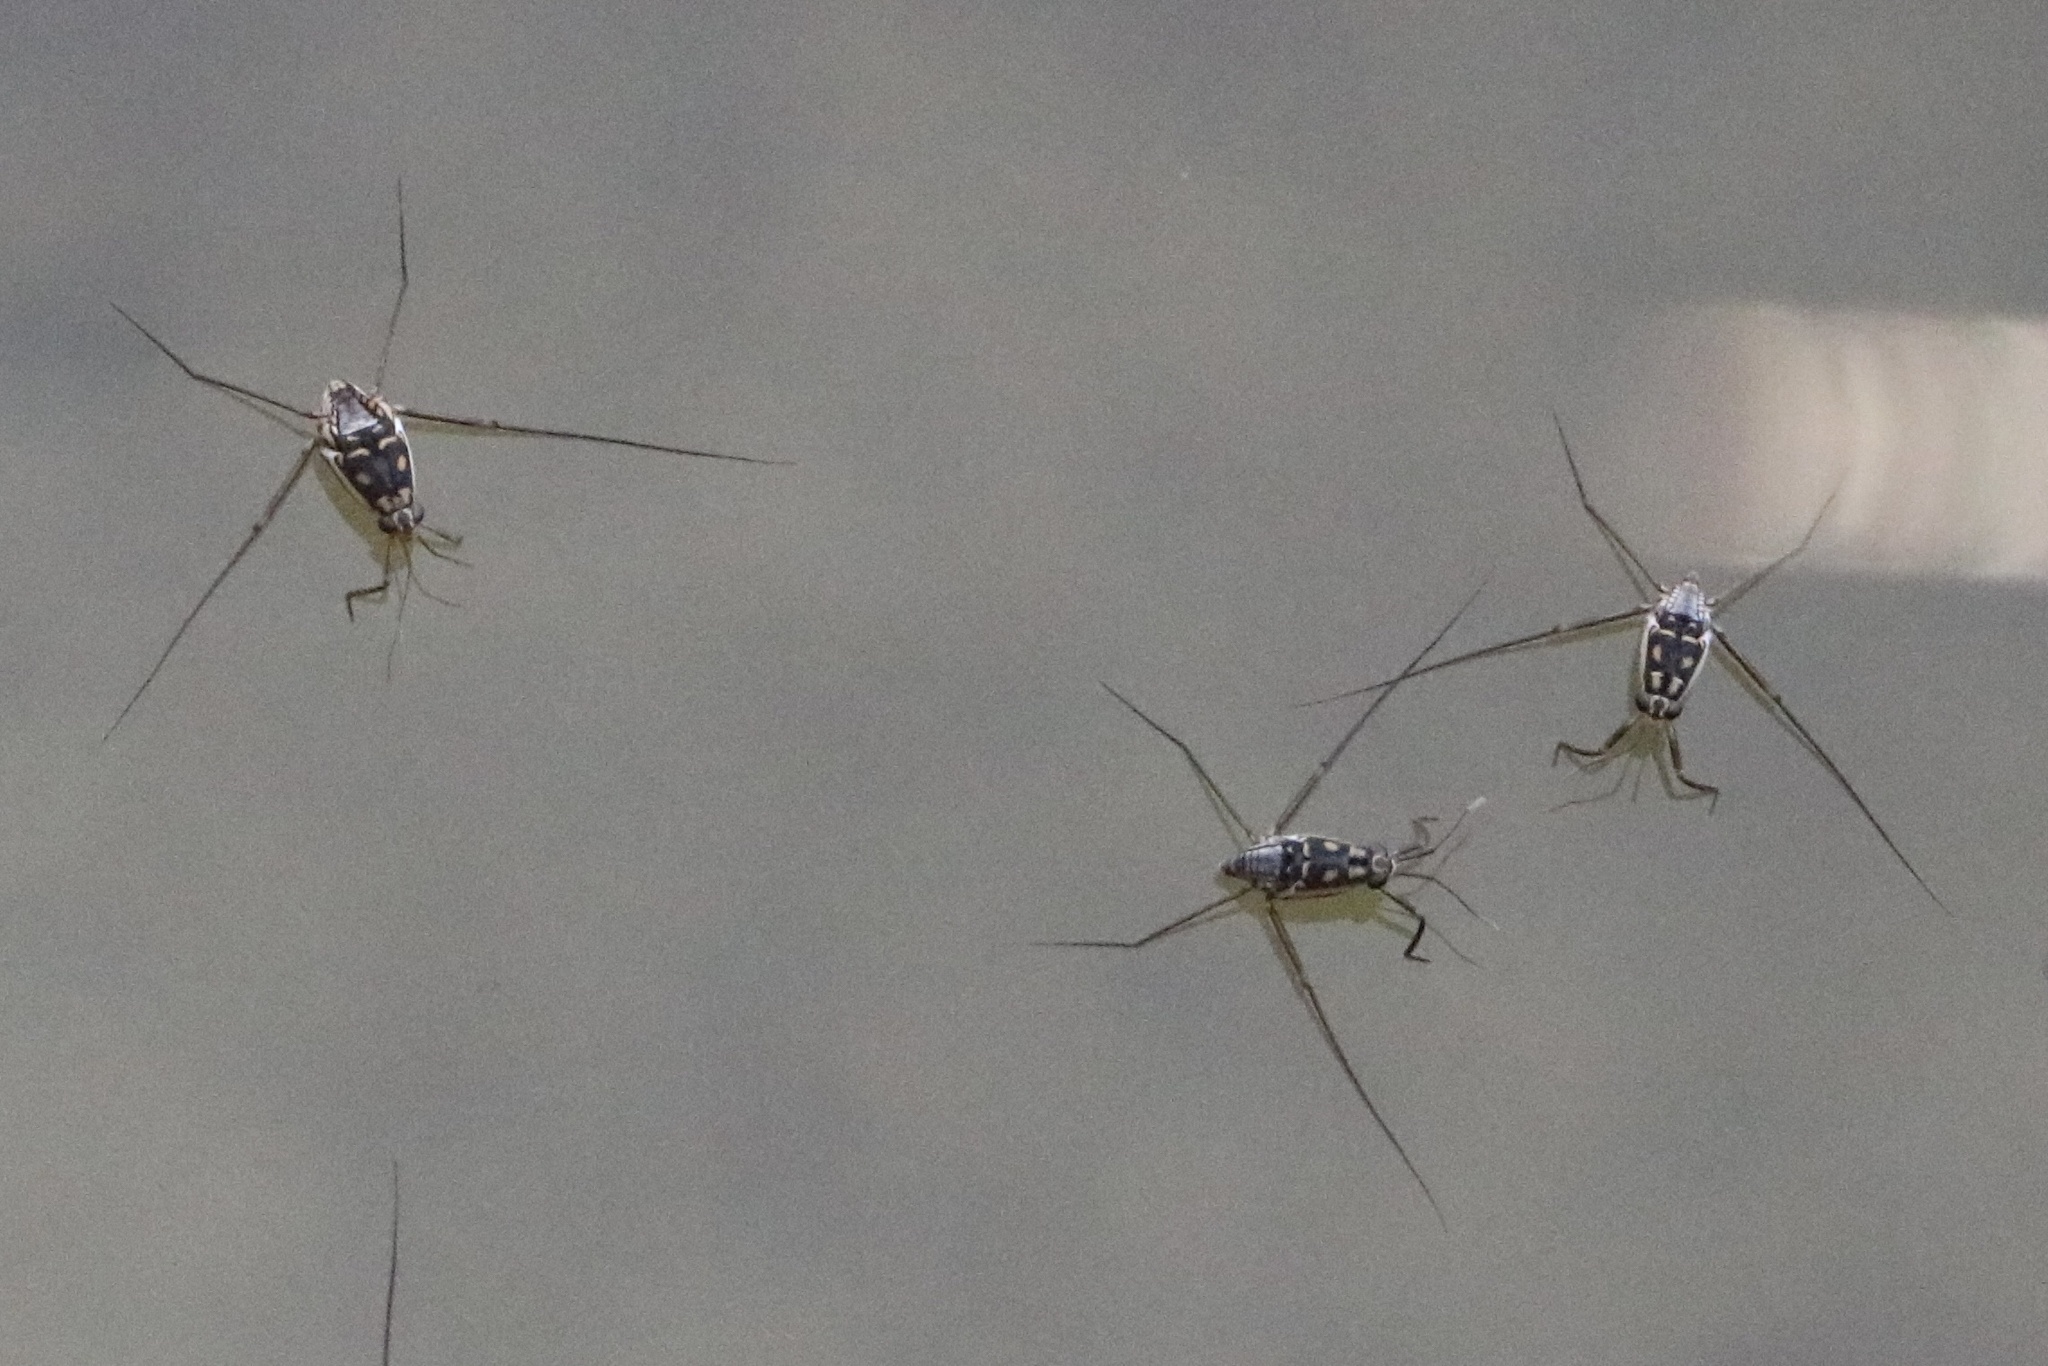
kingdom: Animalia
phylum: Arthropoda
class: Insecta
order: Hemiptera
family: Gerridae
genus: Trepobates
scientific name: Trepobates subnitidus
